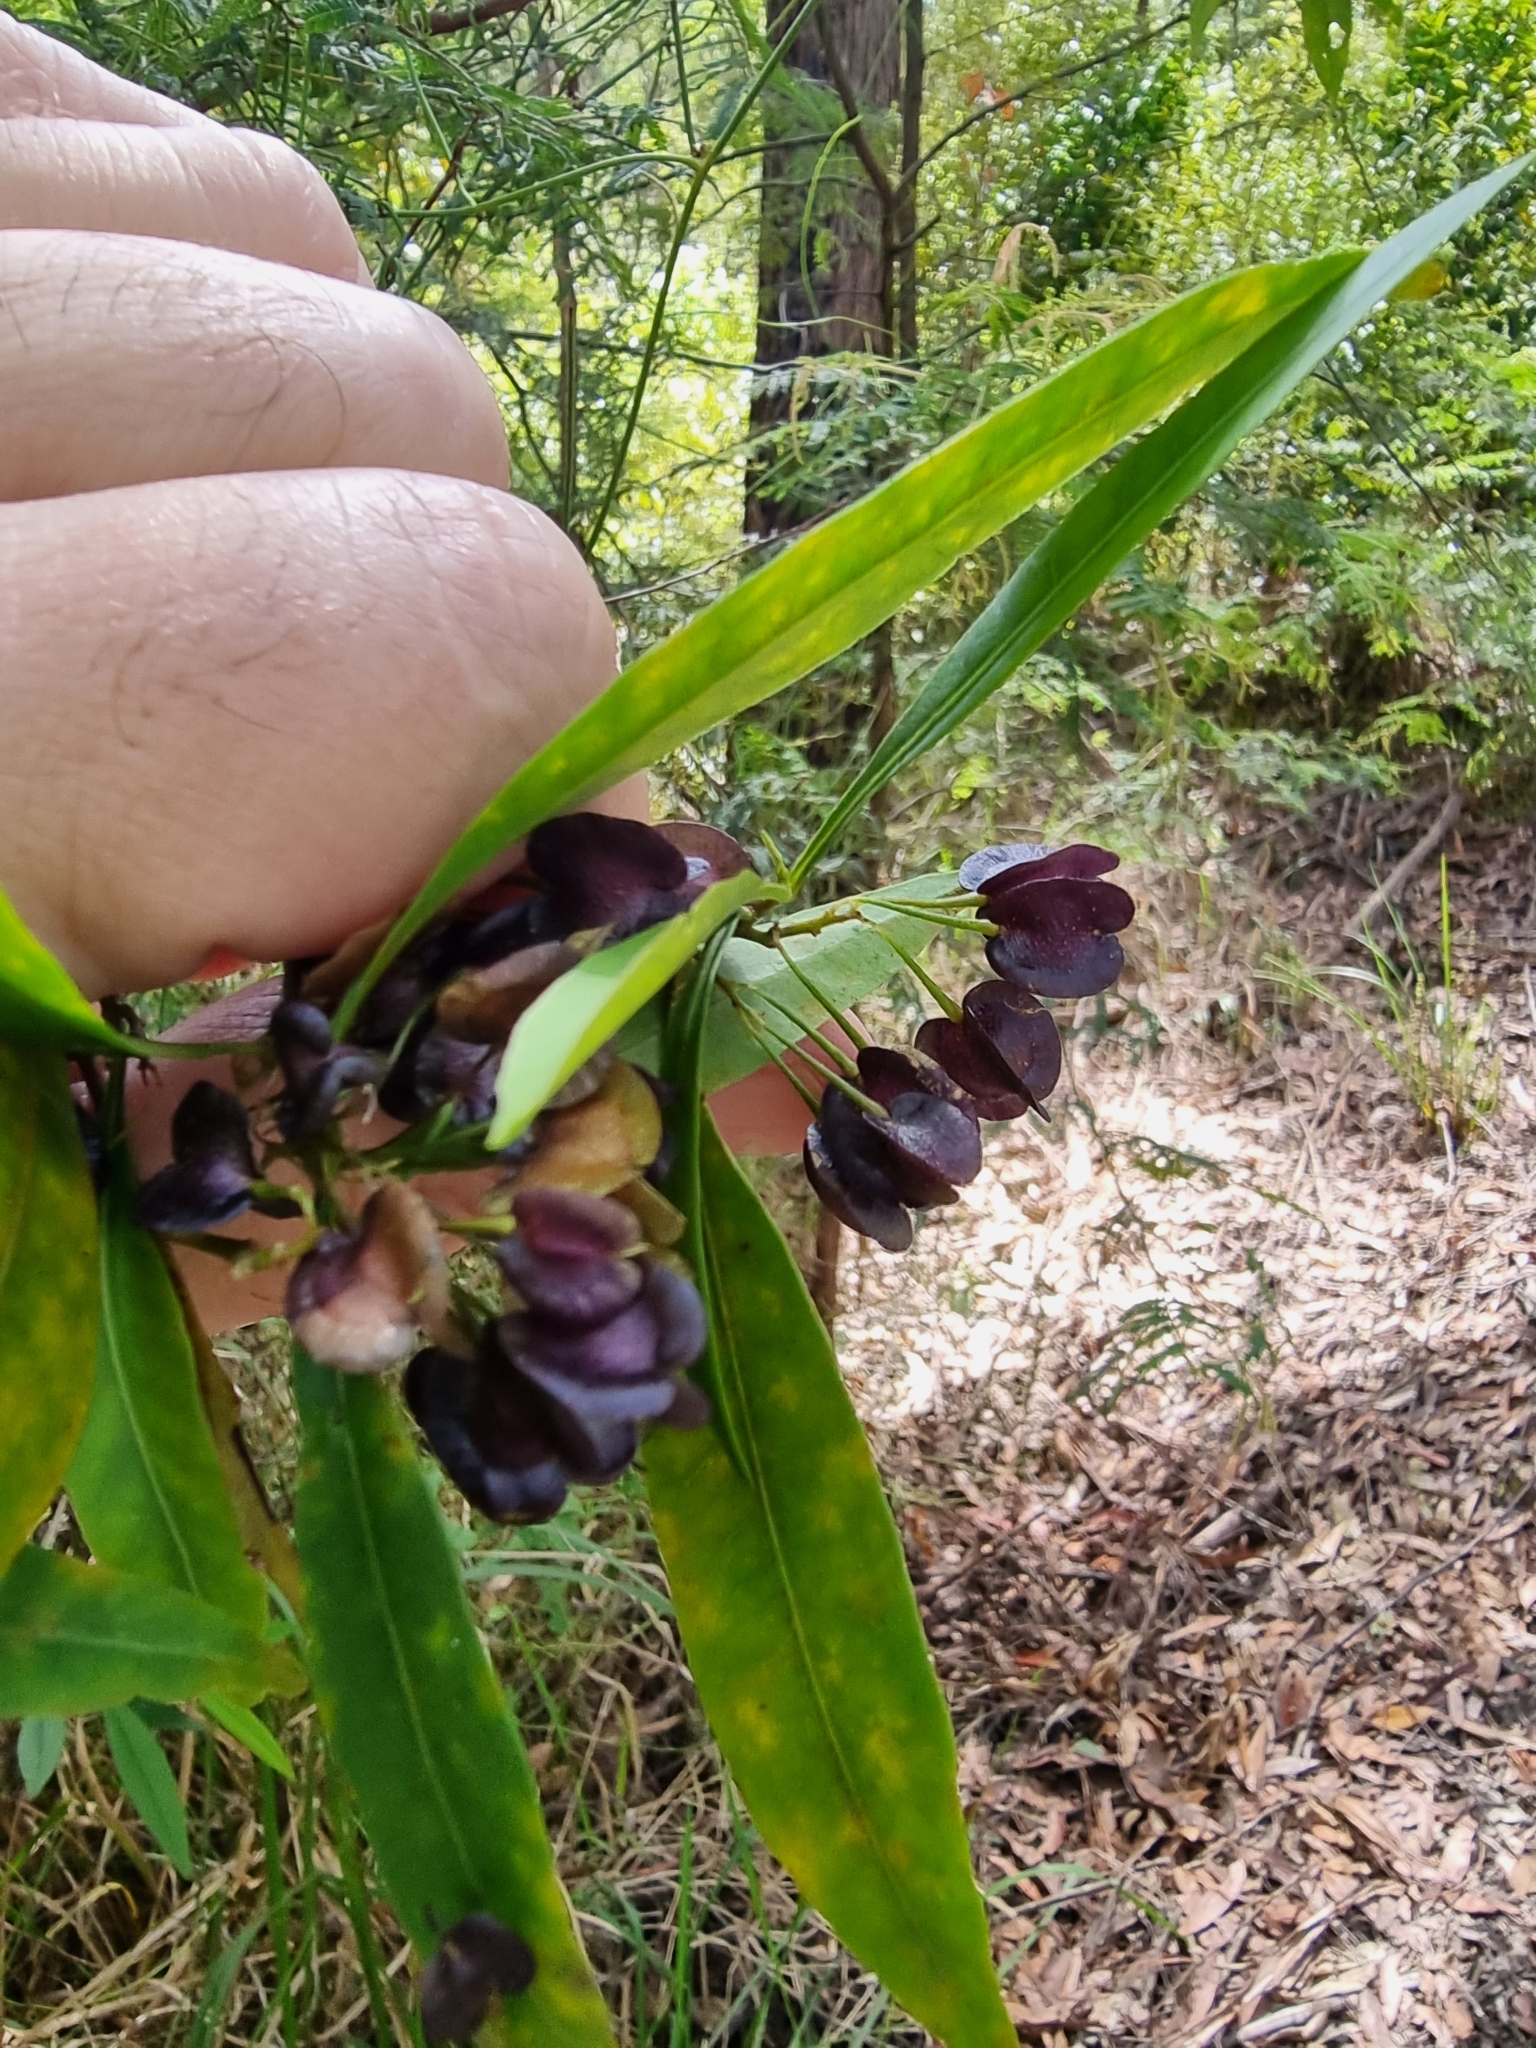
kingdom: Plantae
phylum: Tracheophyta
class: Magnoliopsida
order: Sapindales
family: Sapindaceae
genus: Dodonaea
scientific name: Dodonaea triquetra
